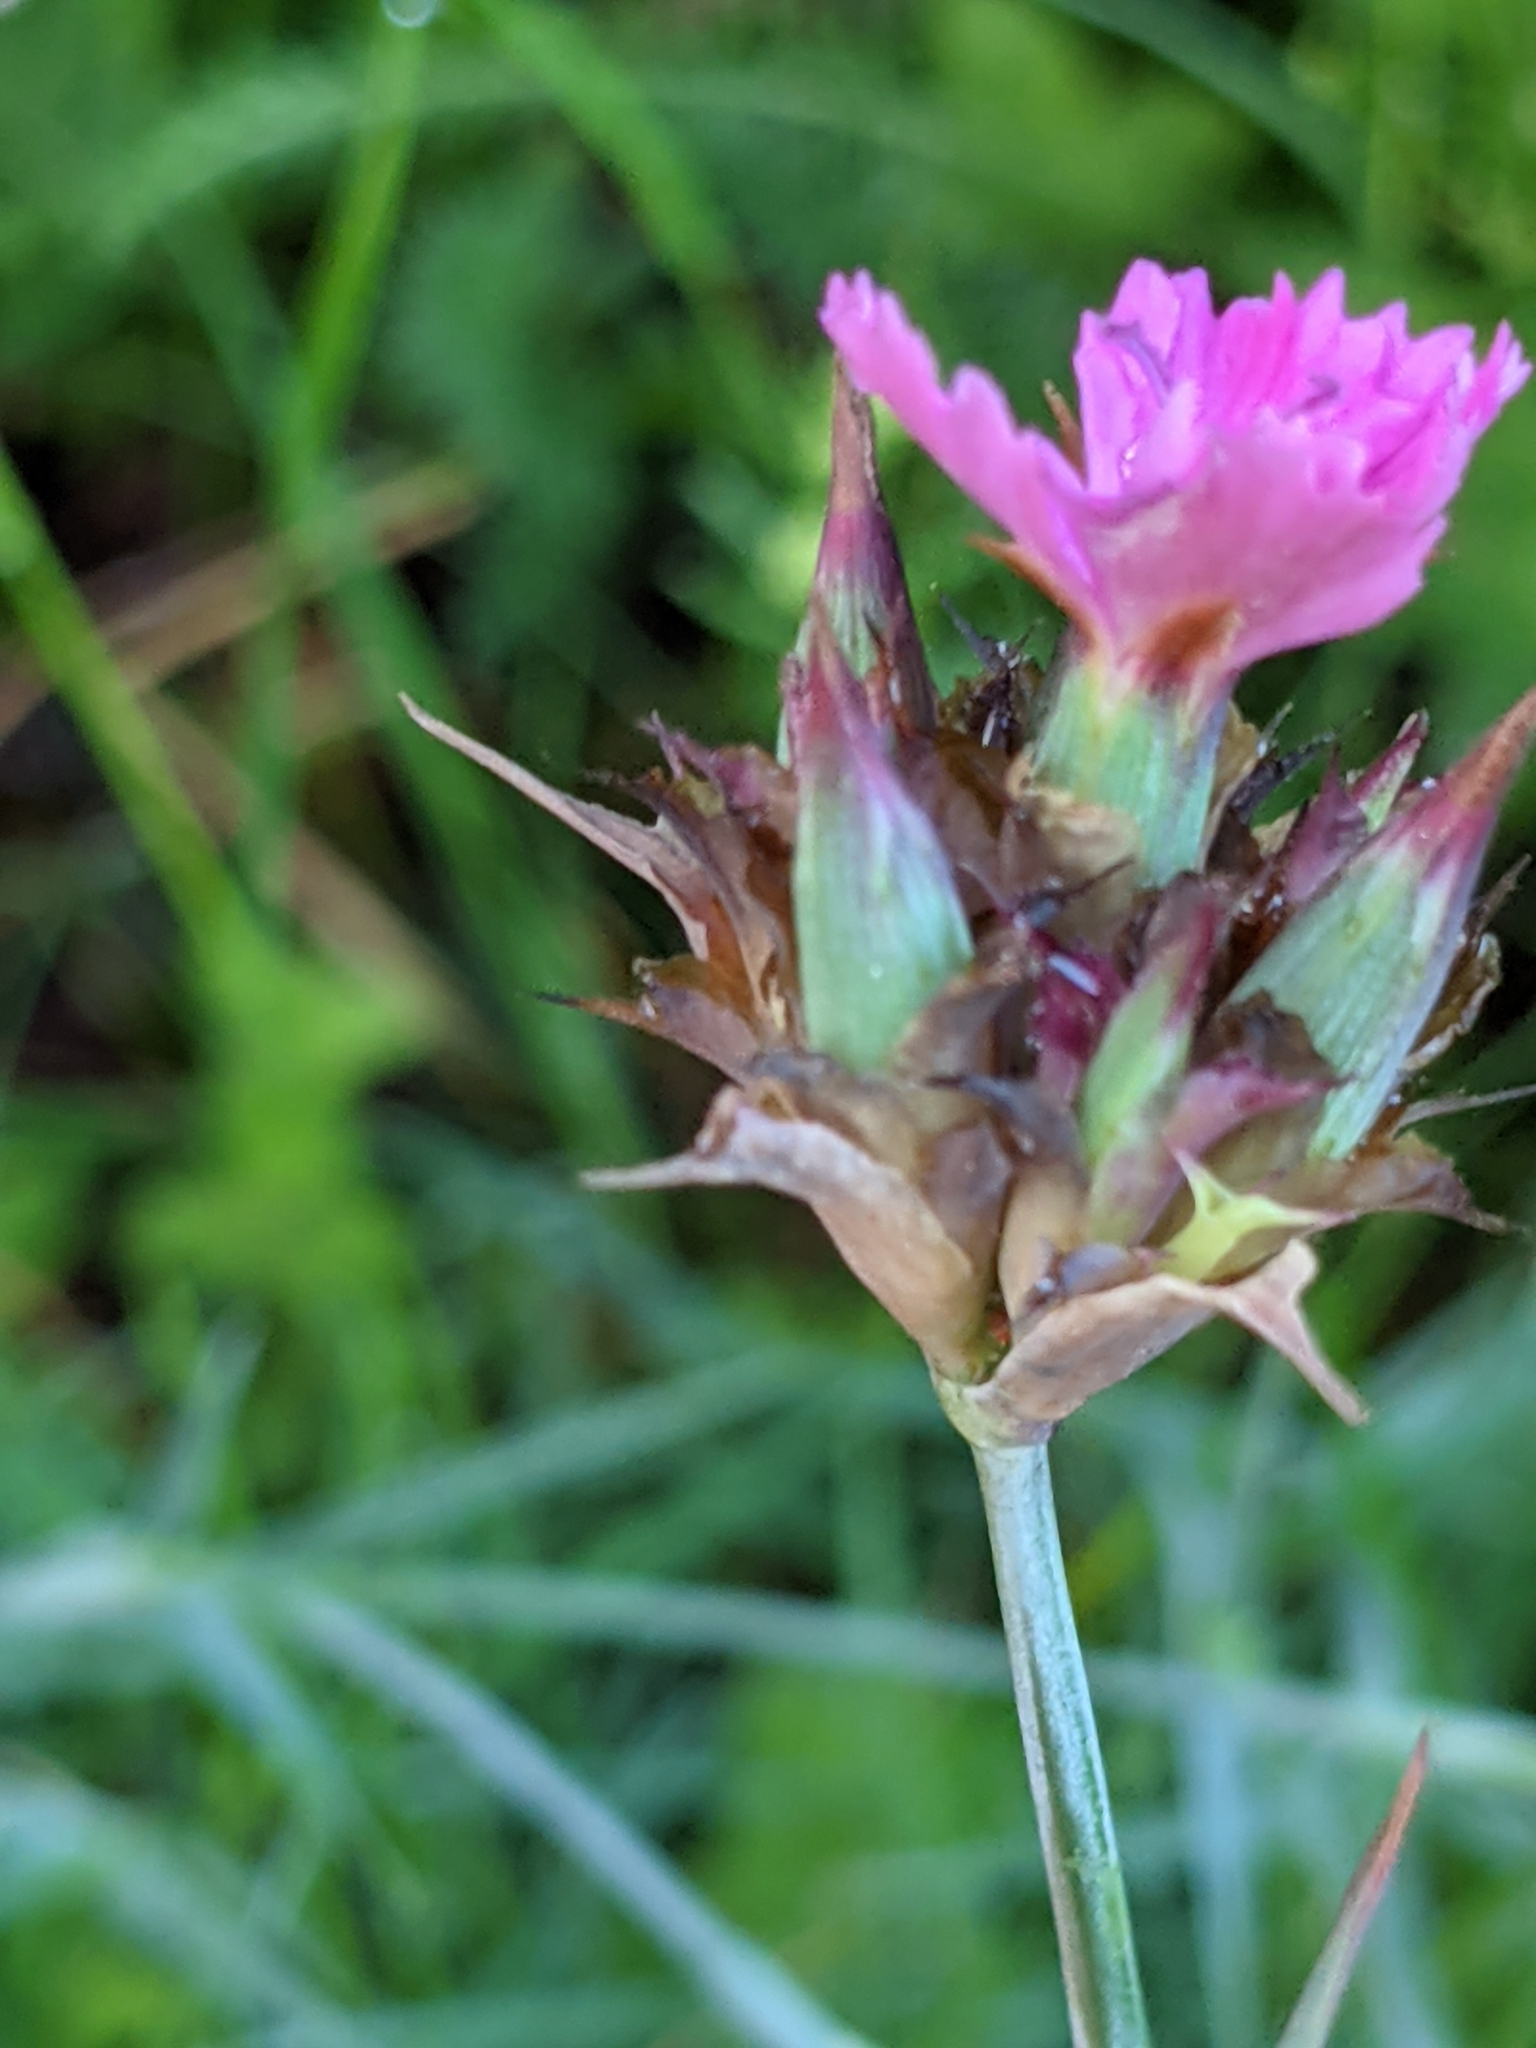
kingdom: Plantae
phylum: Tracheophyta
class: Magnoliopsida
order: Caryophyllales
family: Caryophyllaceae
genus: Dianthus
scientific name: Dianthus carthusianorum
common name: Carthusian pink
